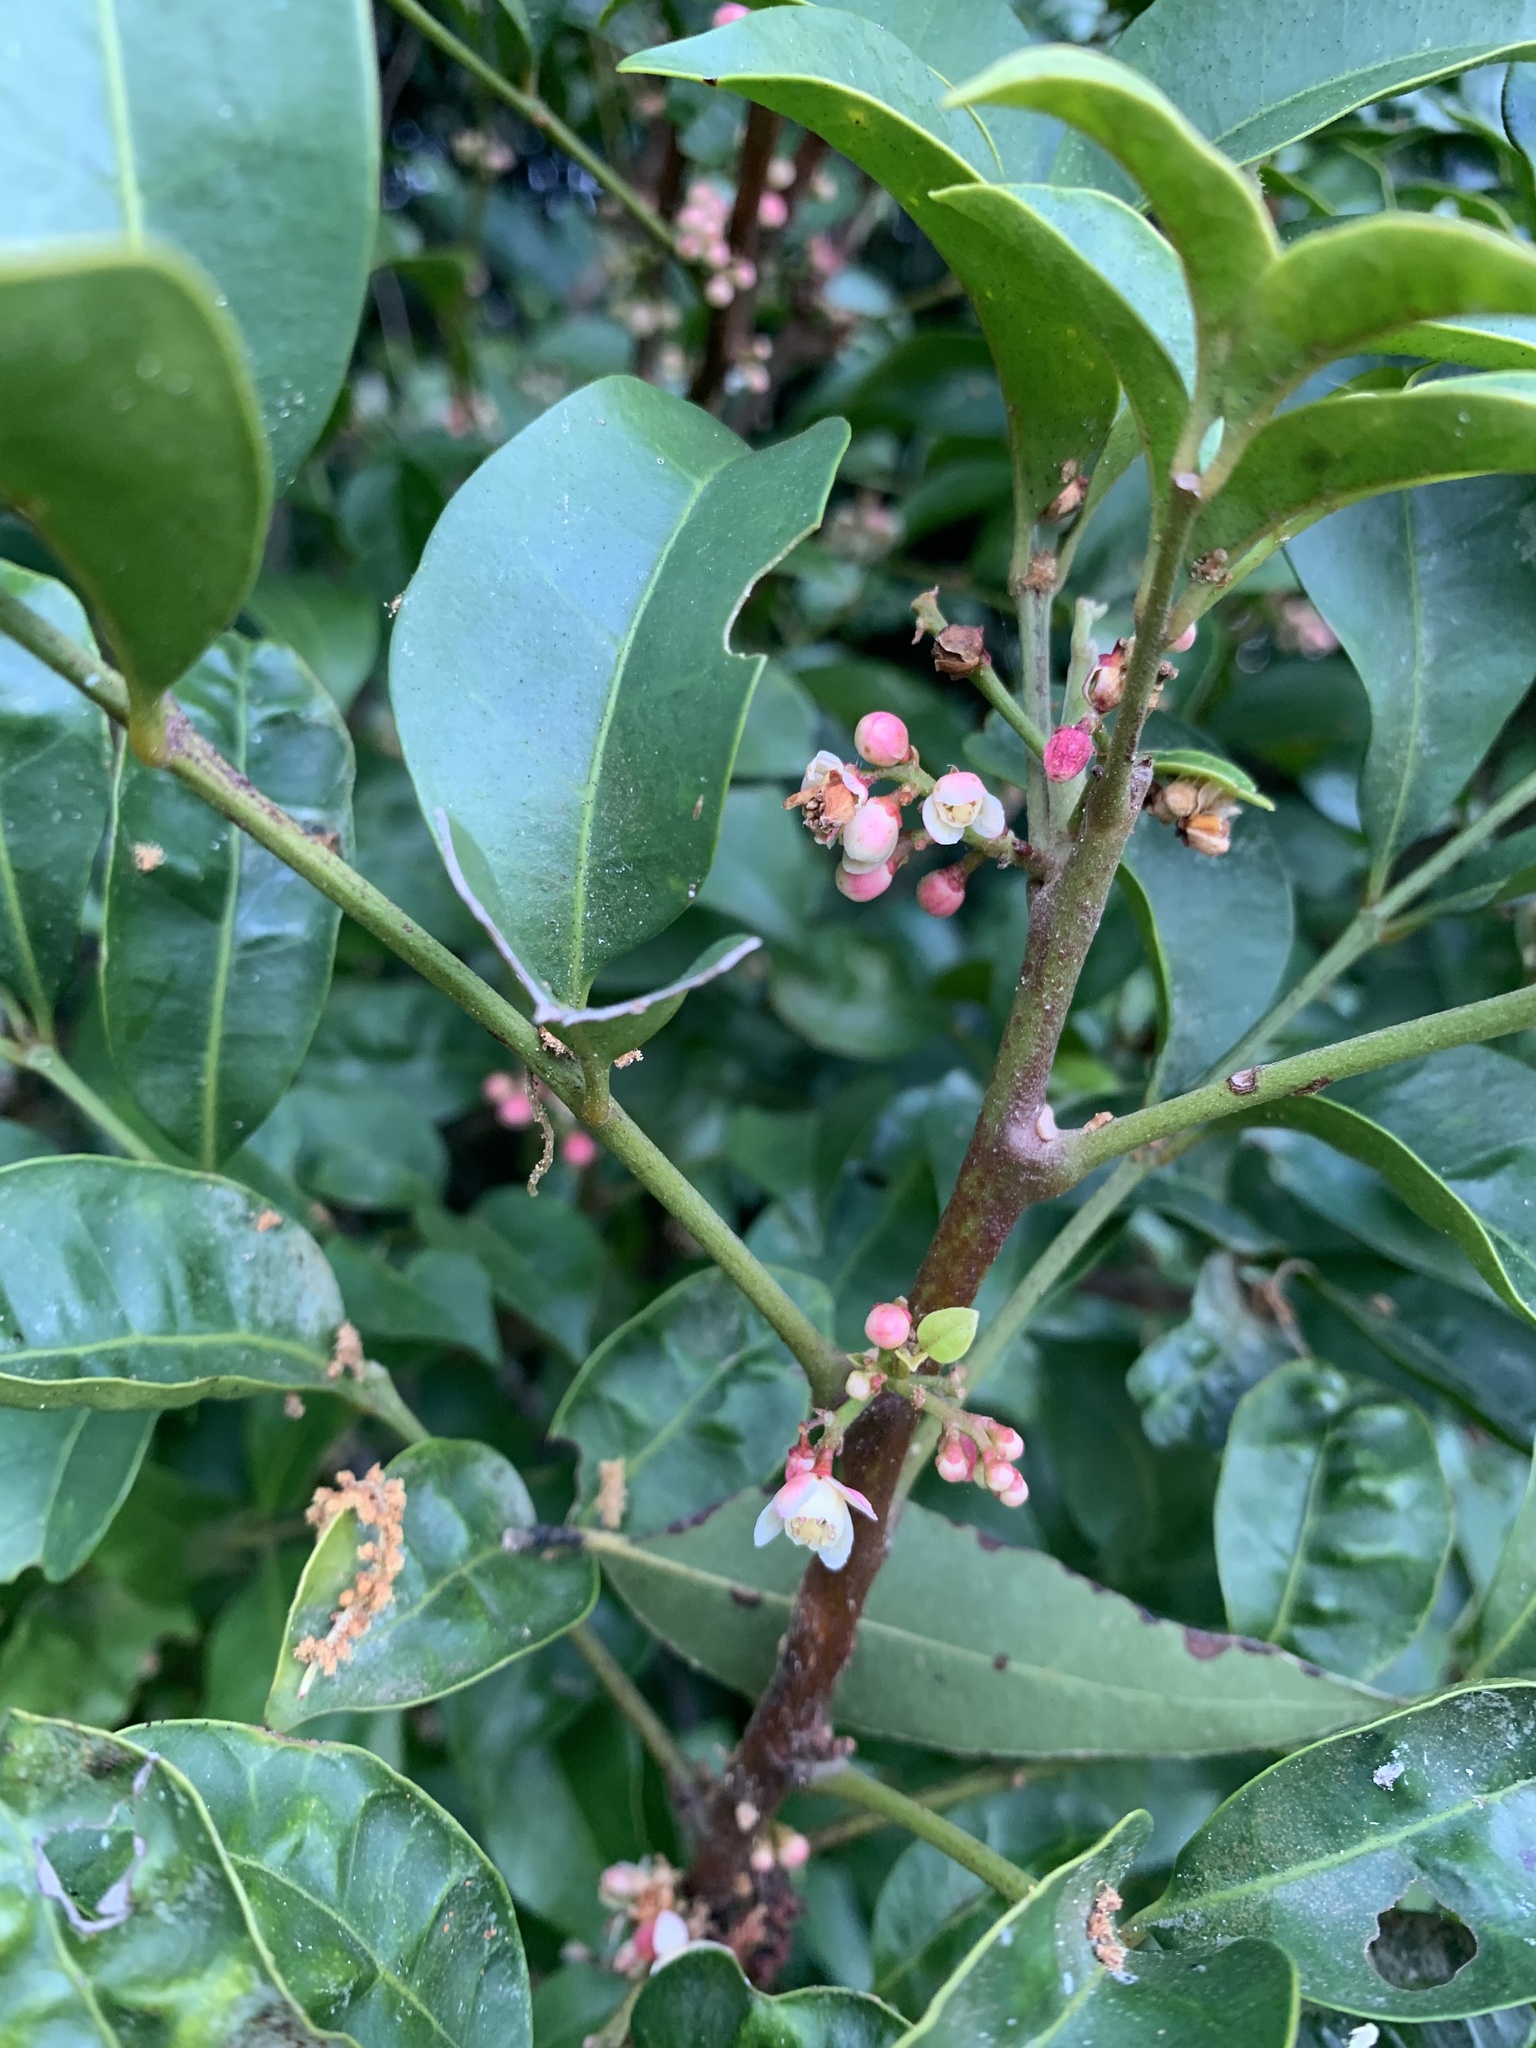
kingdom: Plantae
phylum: Tracheophyta
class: Magnoliopsida
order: Sapindales
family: Meliaceae
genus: Synoum
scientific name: Synoum glandulosum
